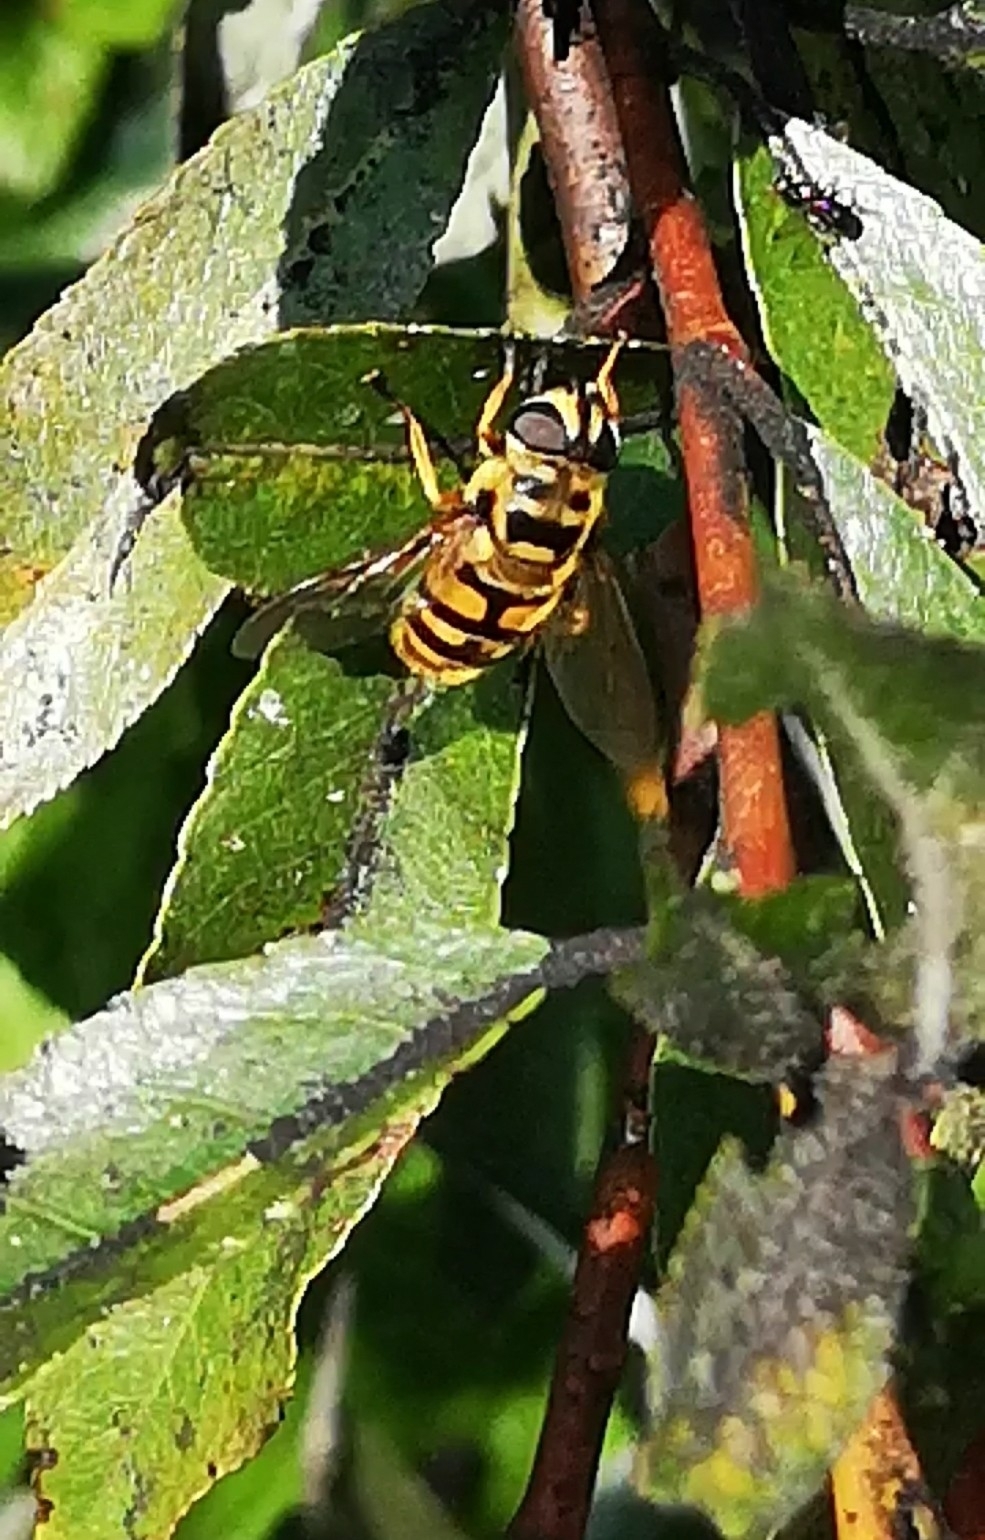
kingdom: Animalia
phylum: Arthropoda
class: Insecta
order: Diptera
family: Syrphidae
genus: Myathropa
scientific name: Myathropa florea
